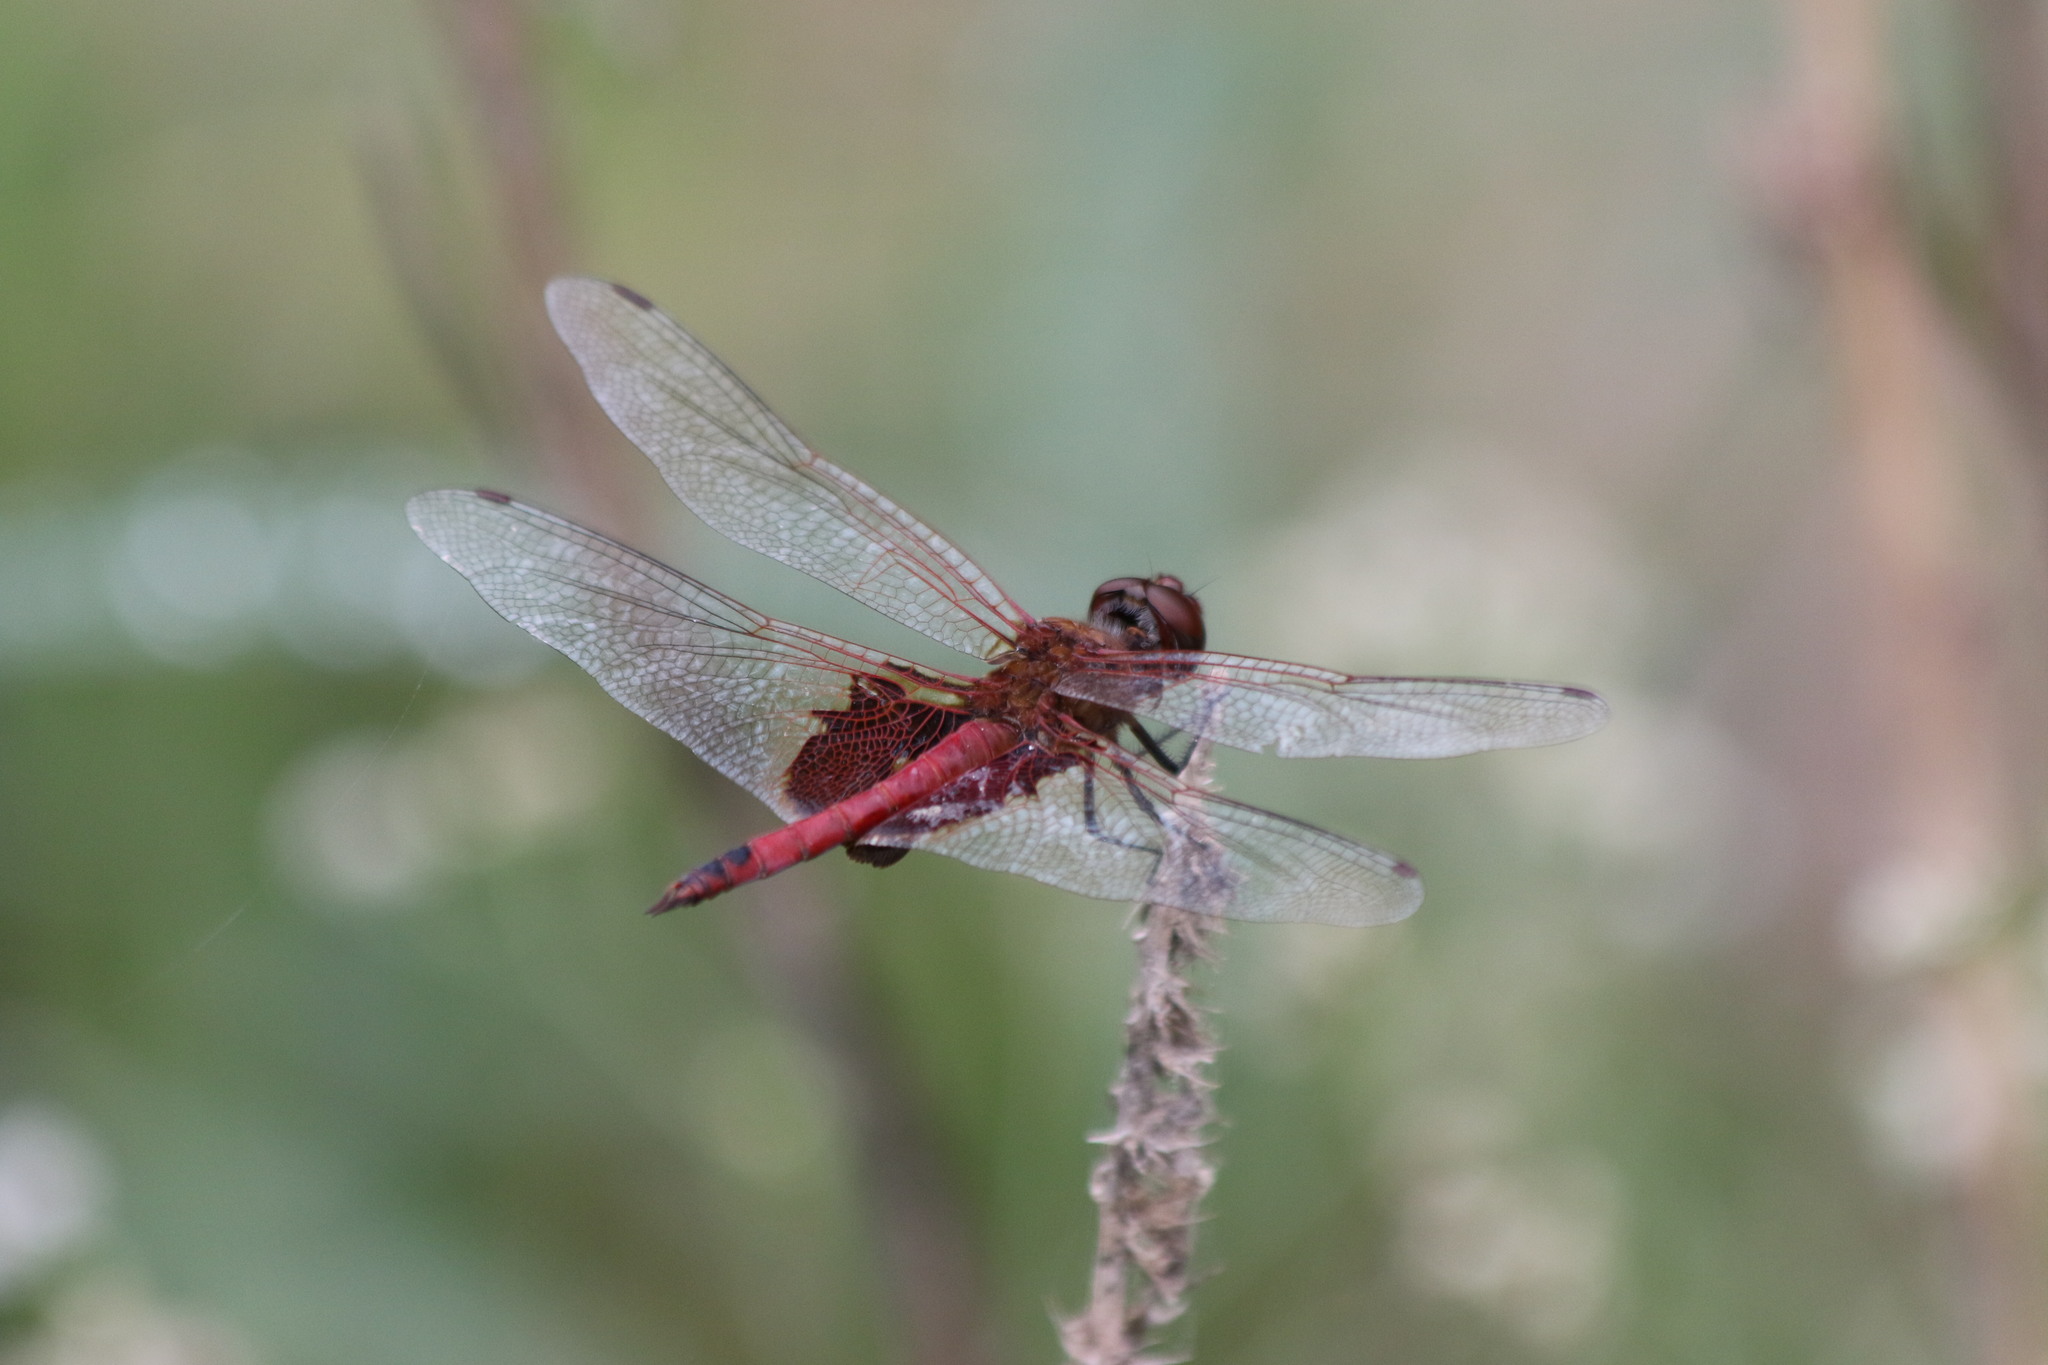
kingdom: Animalia
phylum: Arthropoda
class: Insecta
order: Odonata
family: Libellulidae
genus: Tramea
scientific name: Tramea onusta
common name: Red saddlebags
